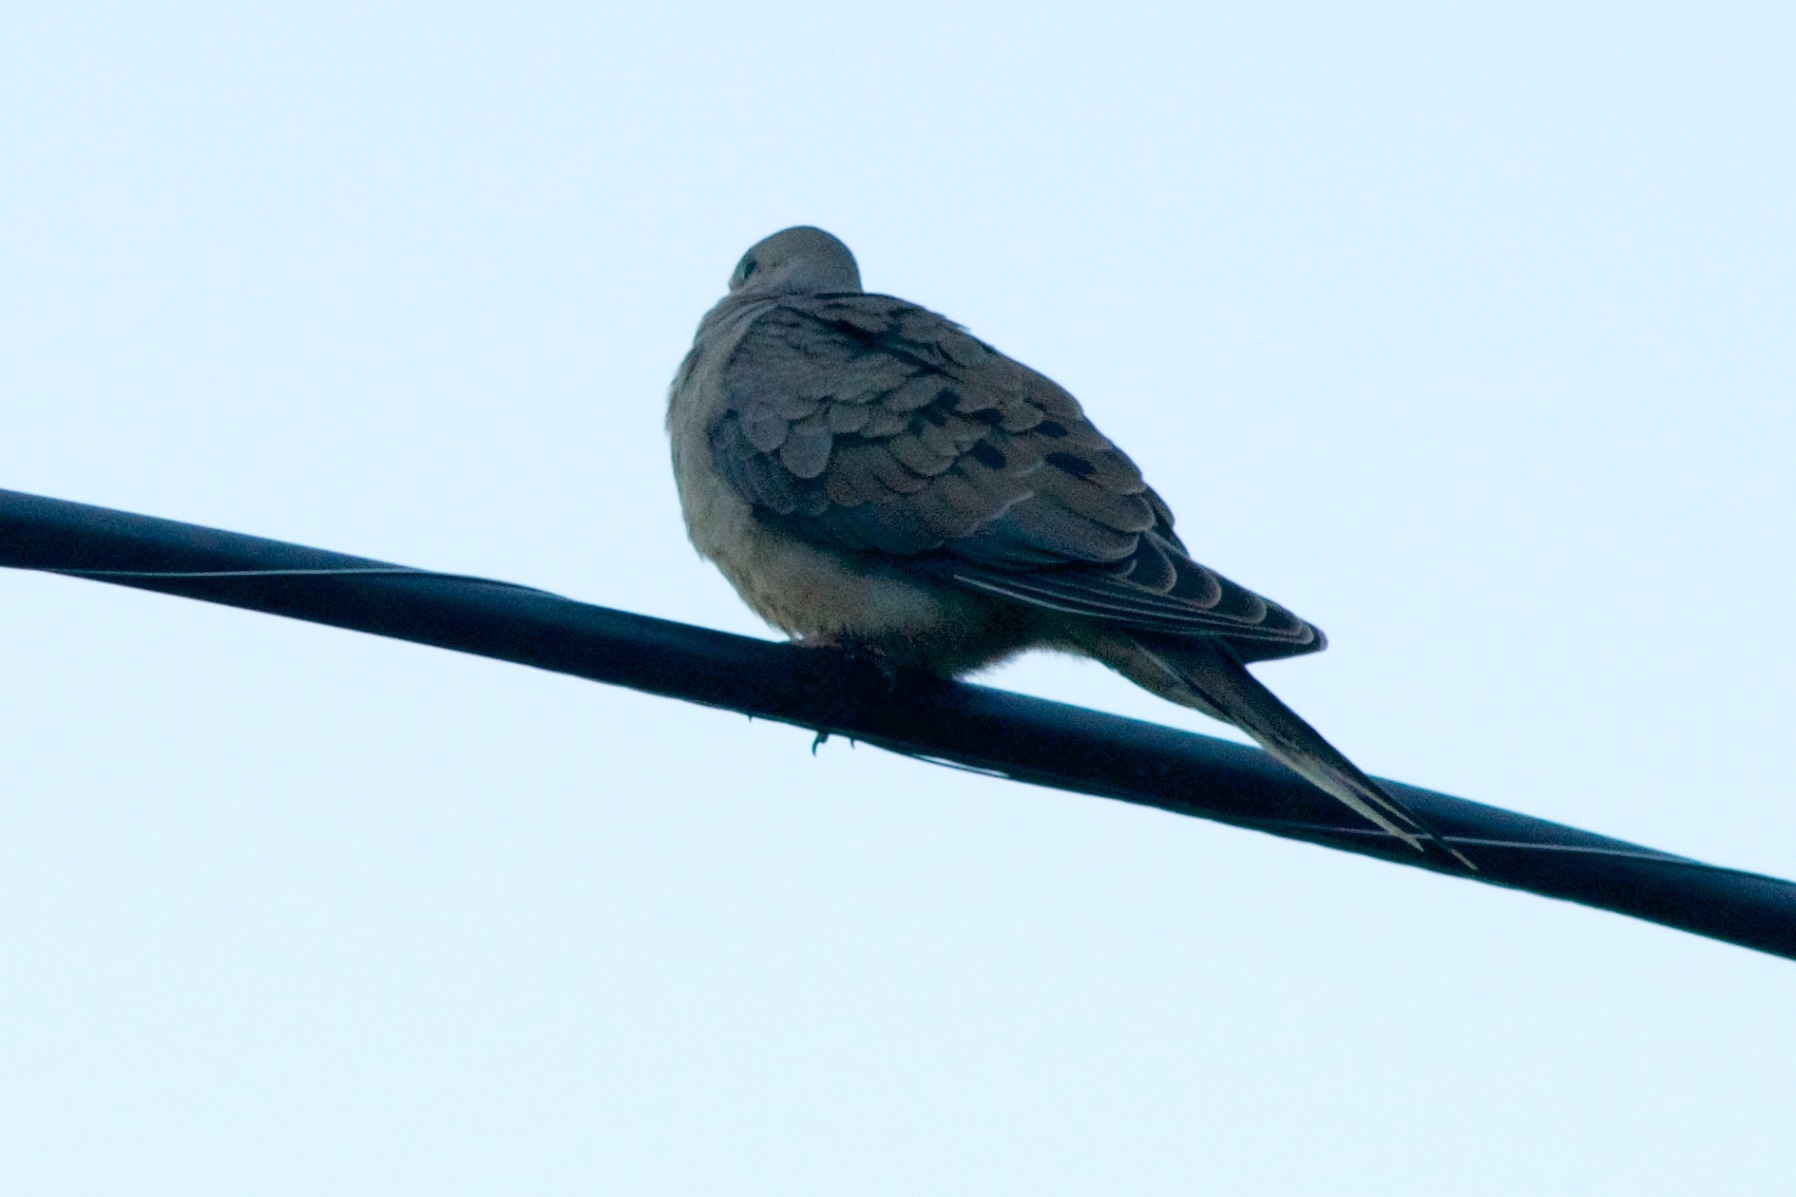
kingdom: Animalia
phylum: Chordata
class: Aves
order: Columbiformes
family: Columbidae
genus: Zenaida
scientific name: Zenaida macroura
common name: Mourning dove
